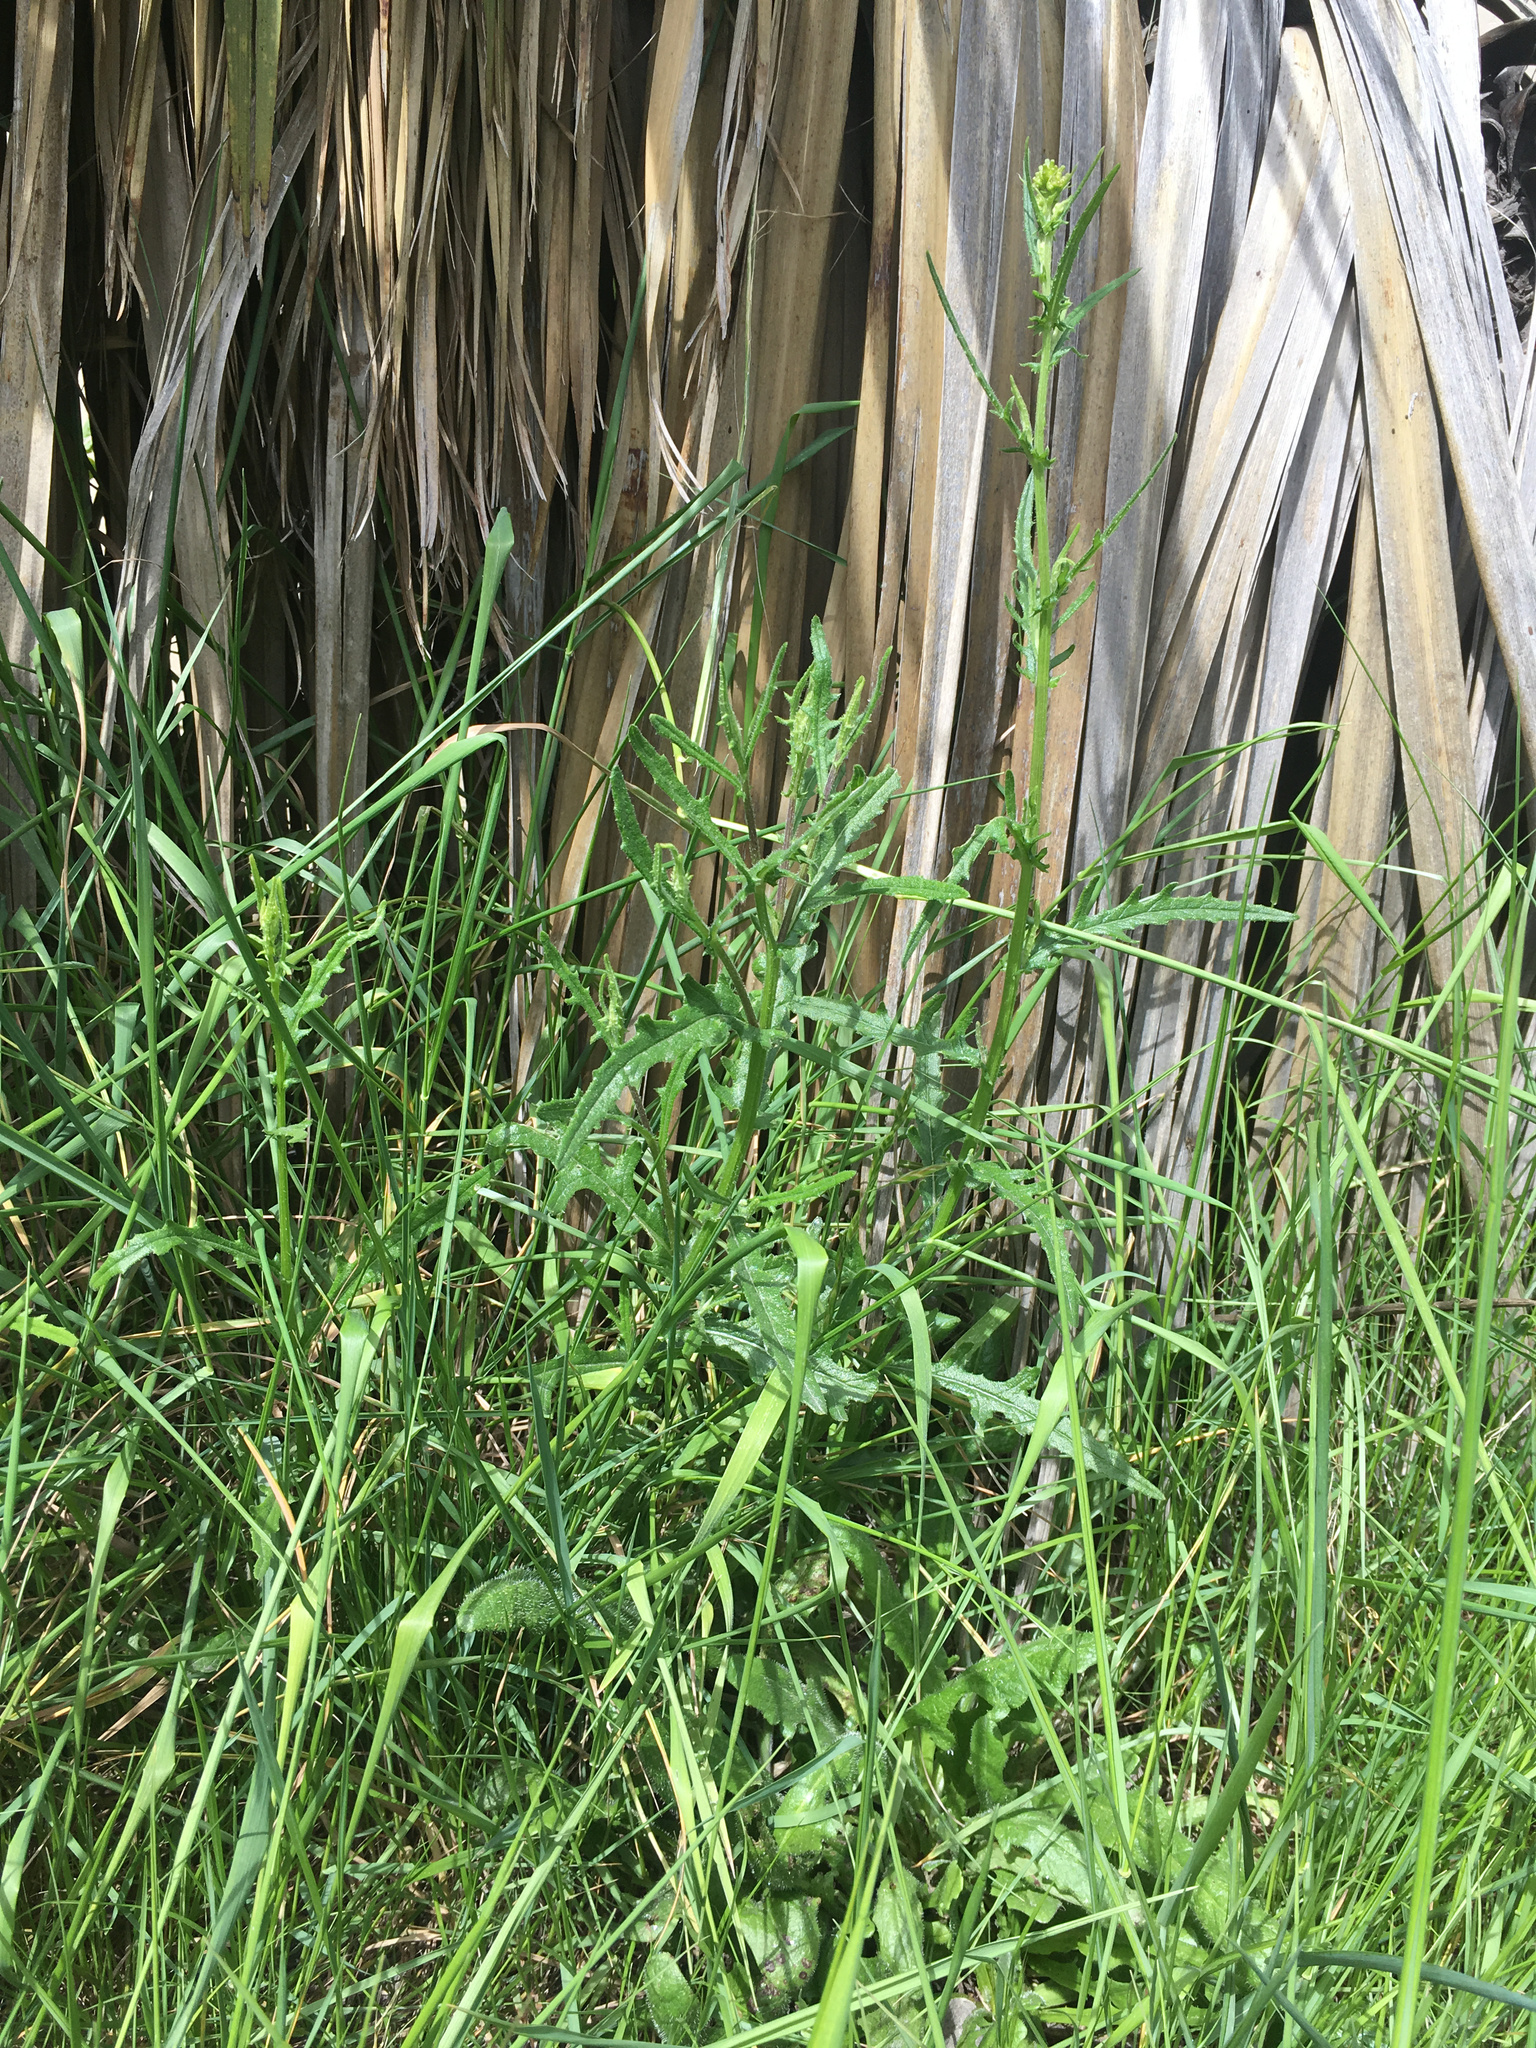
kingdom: Plantae
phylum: Tracheophyta
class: Magnoliopsida
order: Asterales
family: Asteraceae
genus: Senecio
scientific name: Senecio hispidulus
